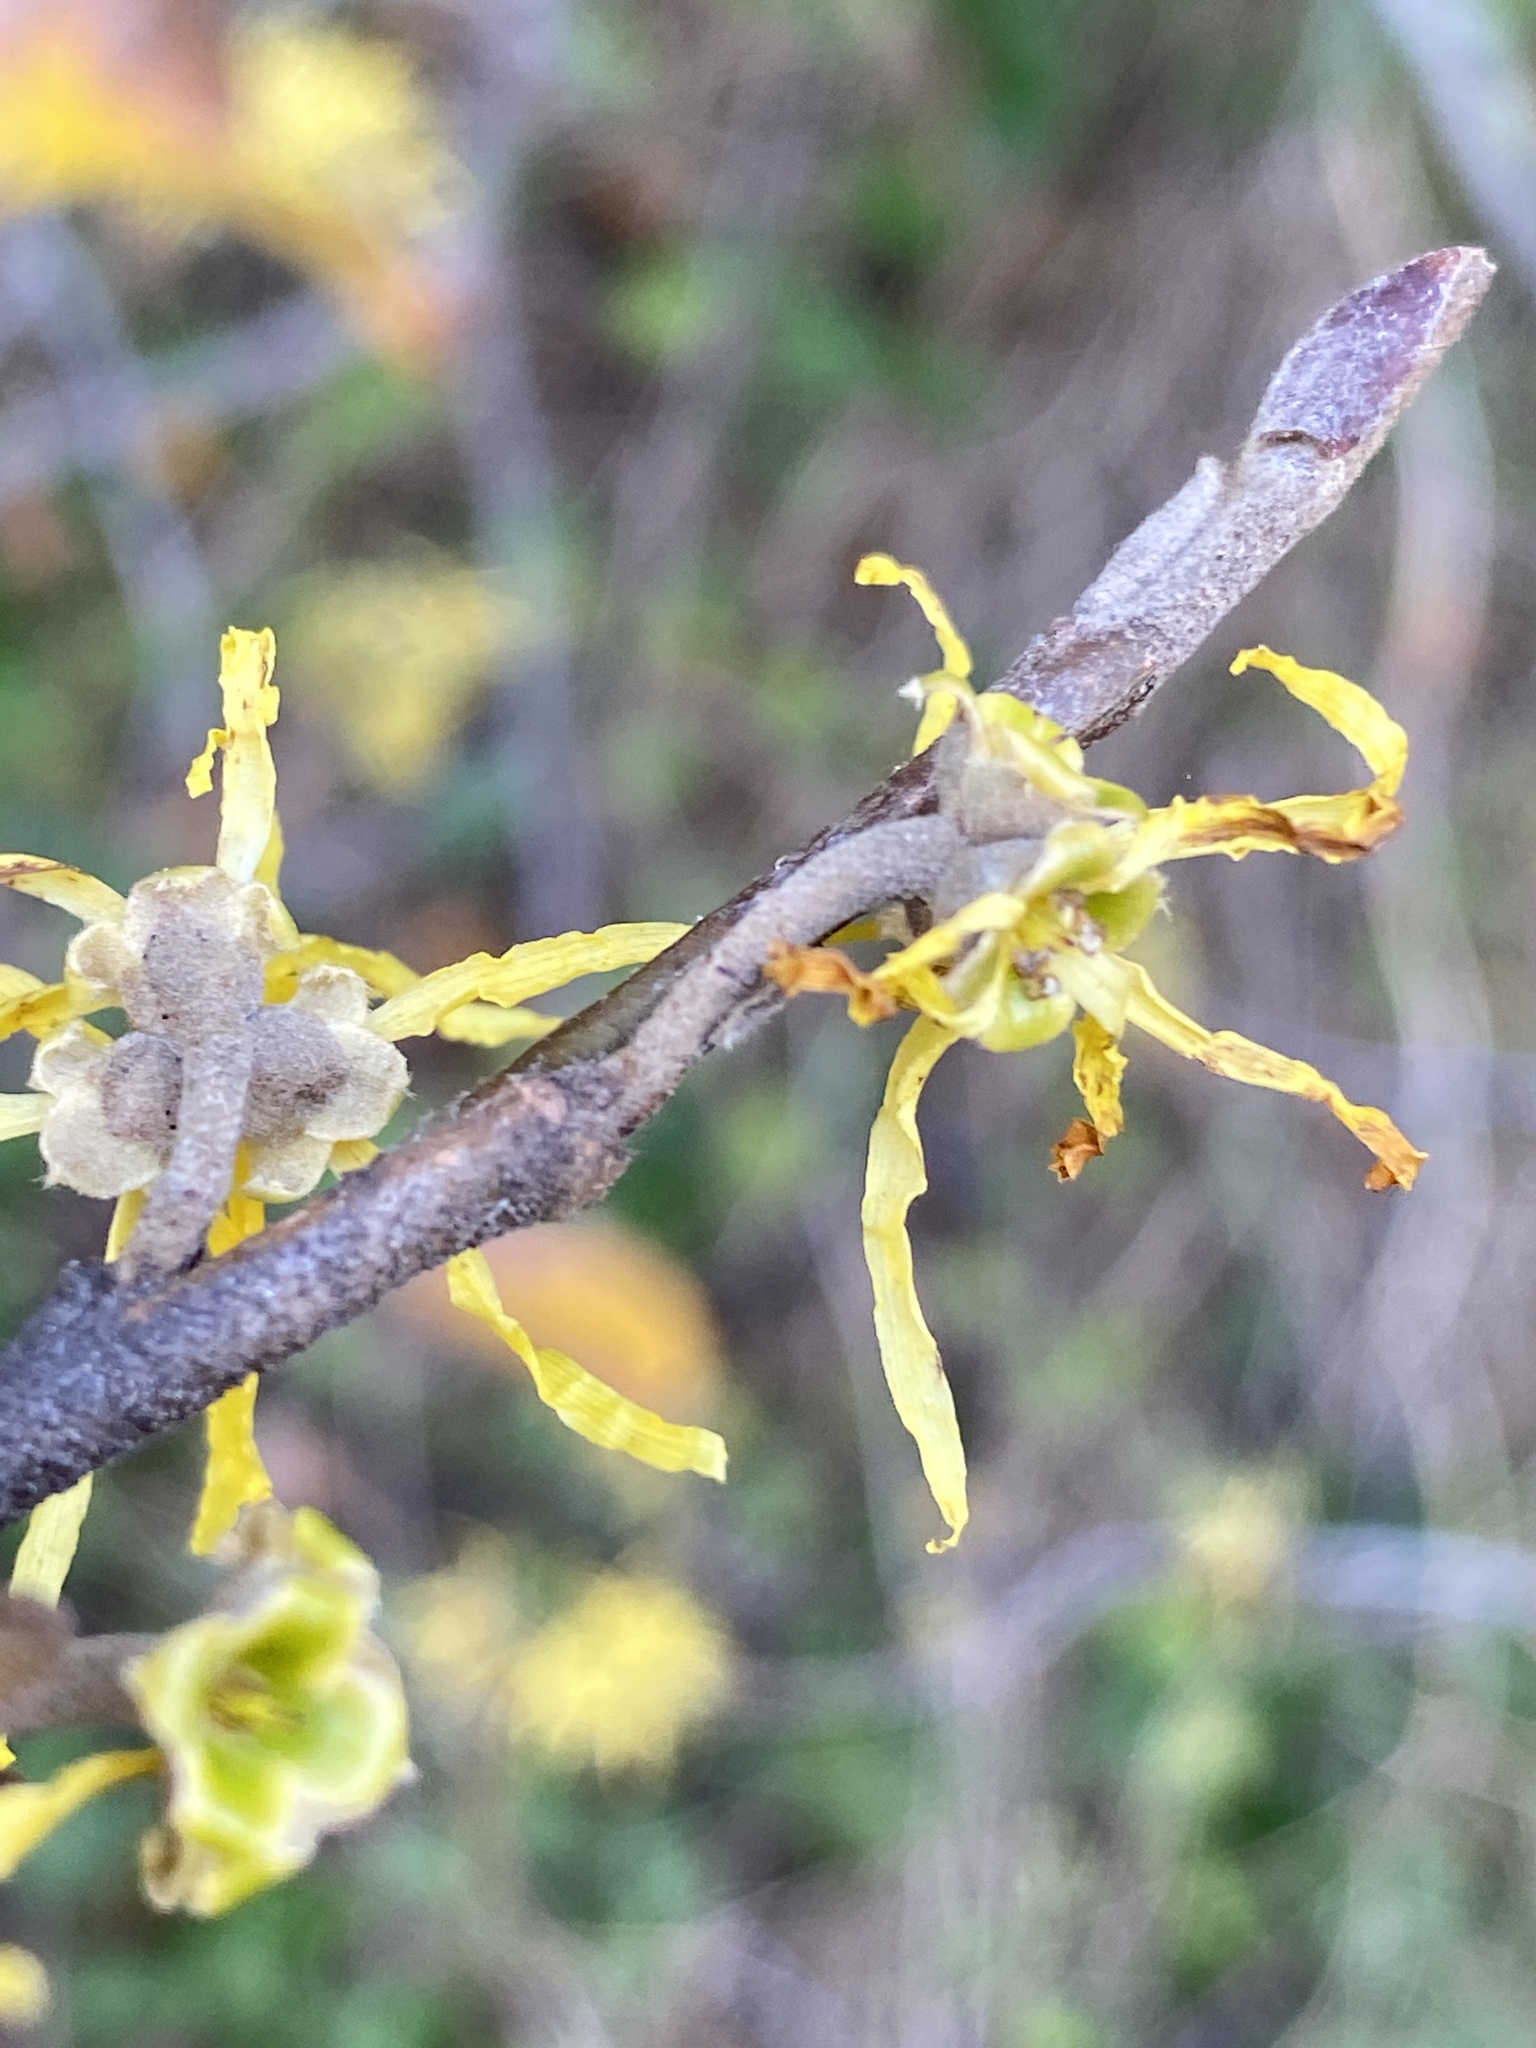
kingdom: Plantae
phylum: Tracheophyta
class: Magnoliopsida
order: Saxifragales
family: Hamamelidaceae
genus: Hamamelis
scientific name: Hamamelis virginiana
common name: Witch-hazel
